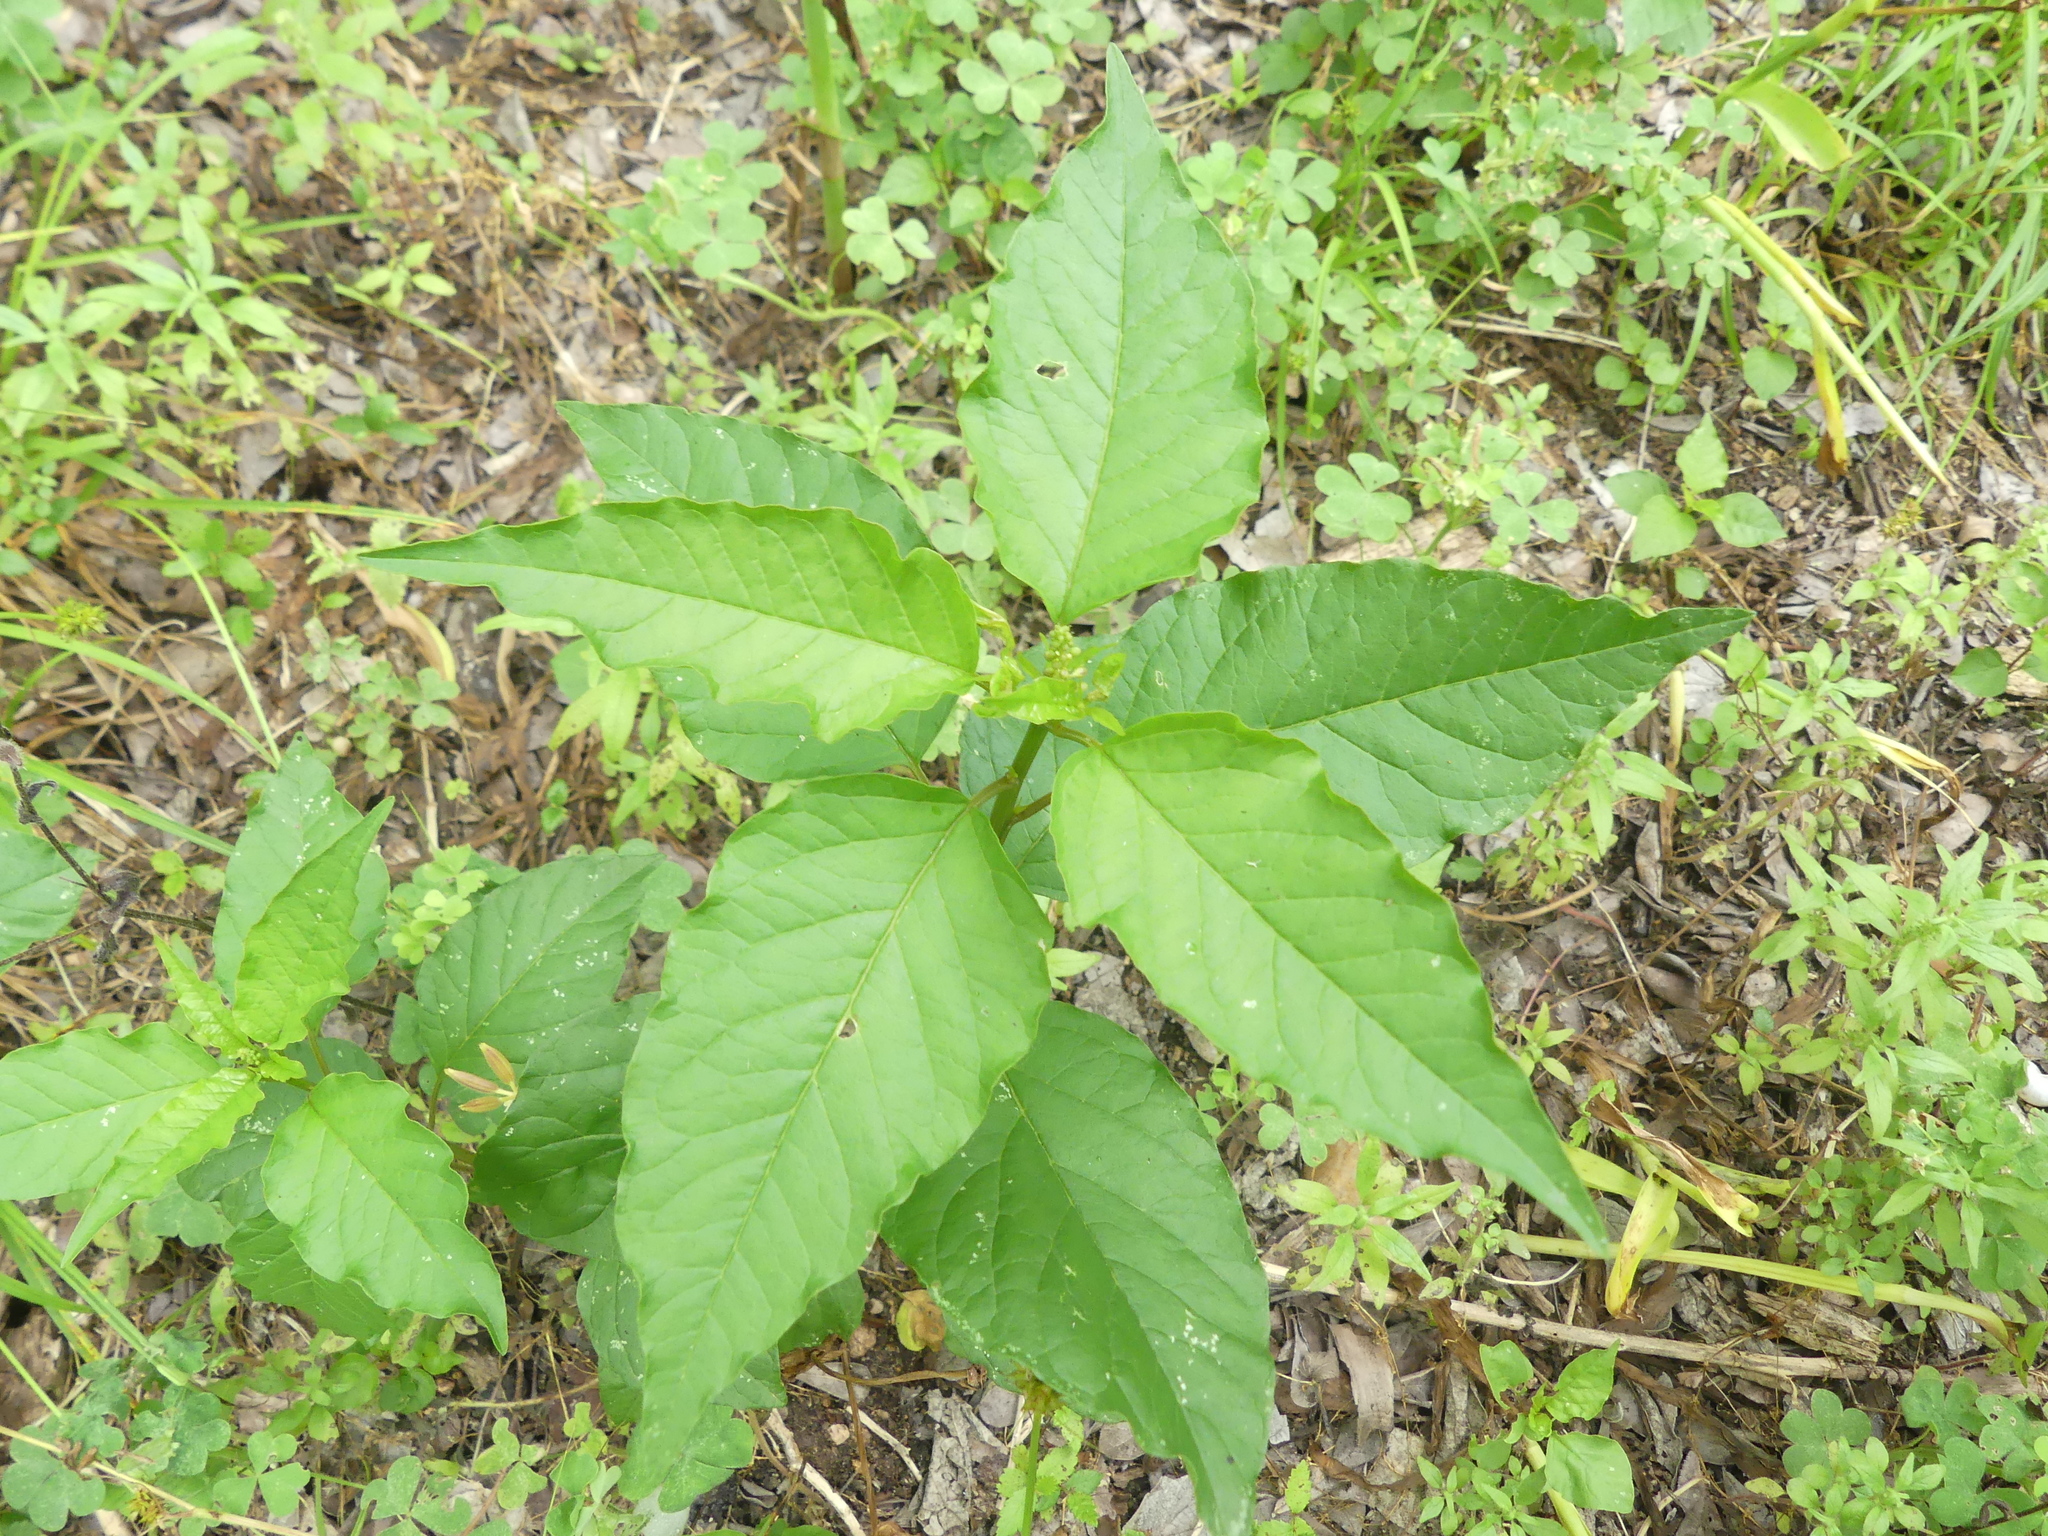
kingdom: Plantae
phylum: Tracheophyta
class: Magnoliopsida
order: Caryophyllales
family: Phytolaccaceae
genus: Rivina
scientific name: Rivina humilis
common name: Rougeplant
